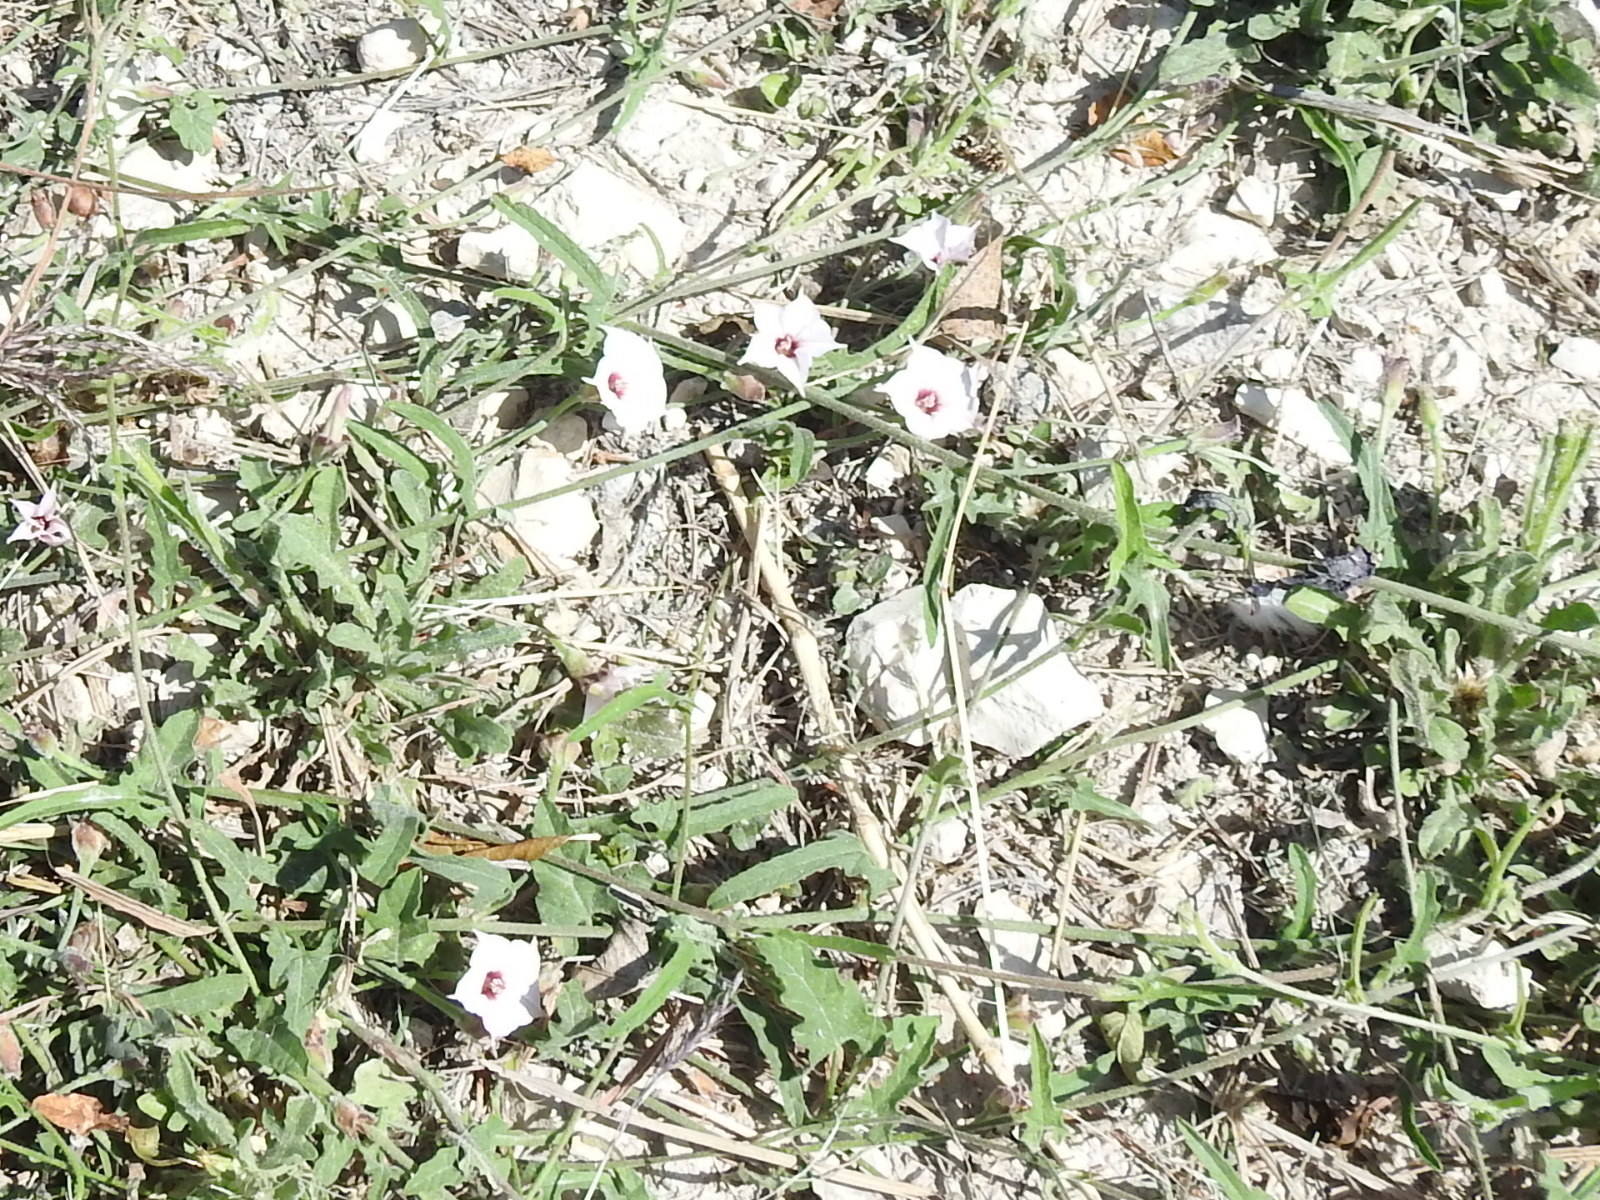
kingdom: Plantae
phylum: Tracheophyta
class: Magnoliopsida
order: Solanales
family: Convolvulaceae
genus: Convolvulus
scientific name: Convolvulus equitans
